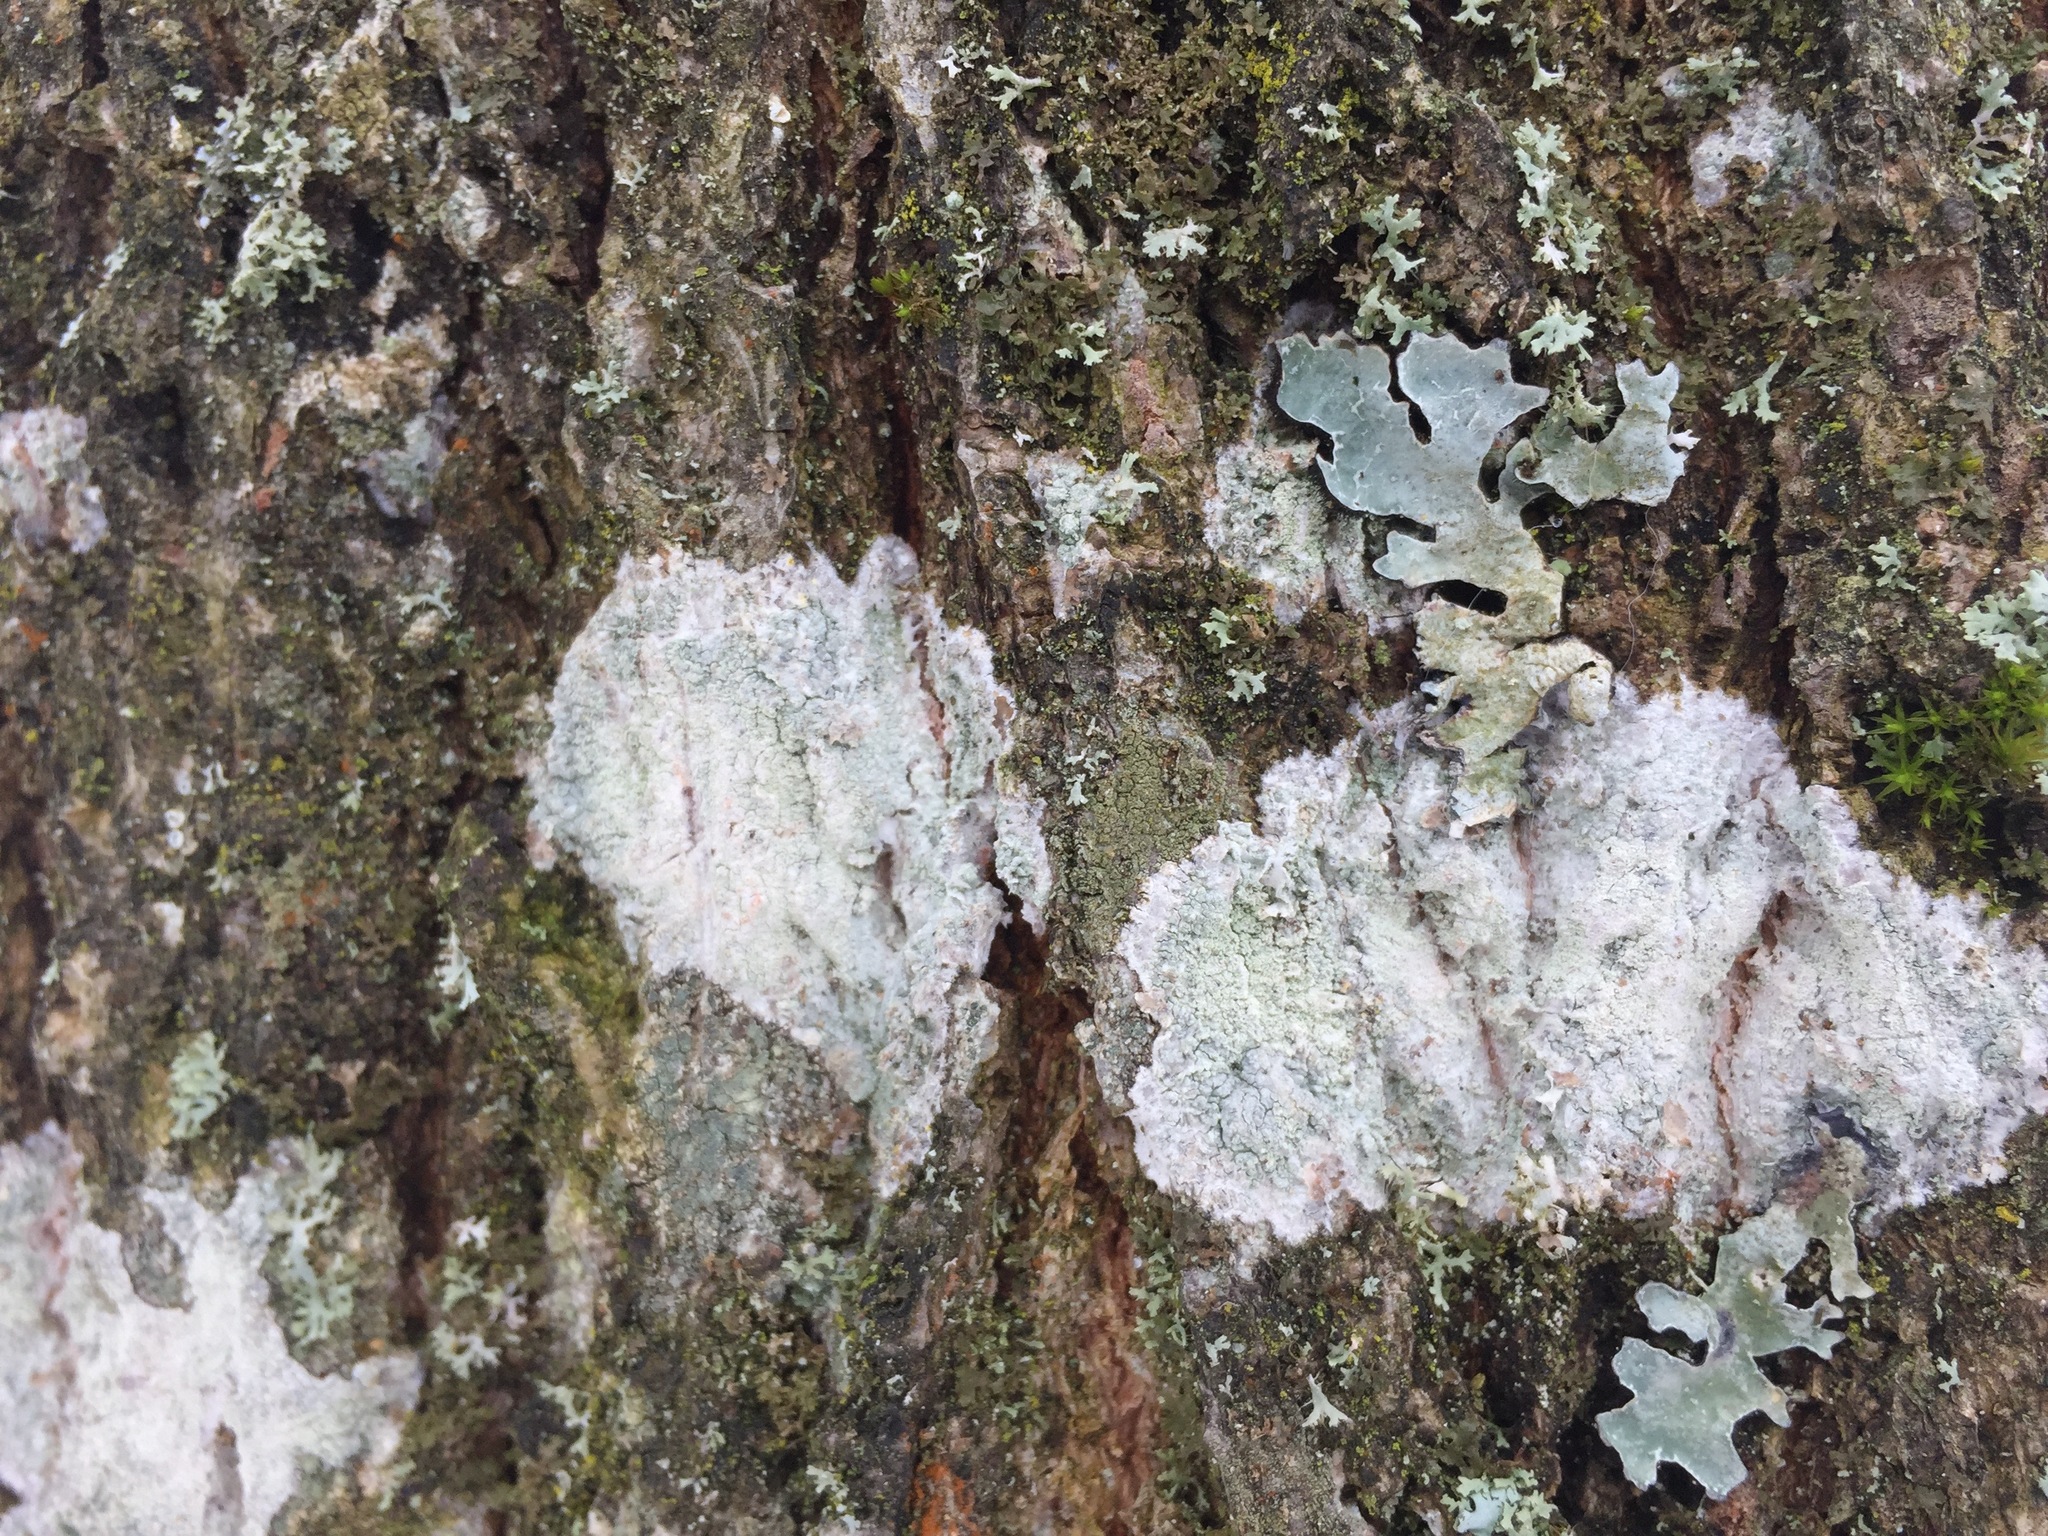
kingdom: Fungi
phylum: Ascomycota
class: Lecanoromycetes
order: Ostropales
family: Phlyctidaceae
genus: Phlyctis
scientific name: Phlyctis argena
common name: Whitewash lichen
